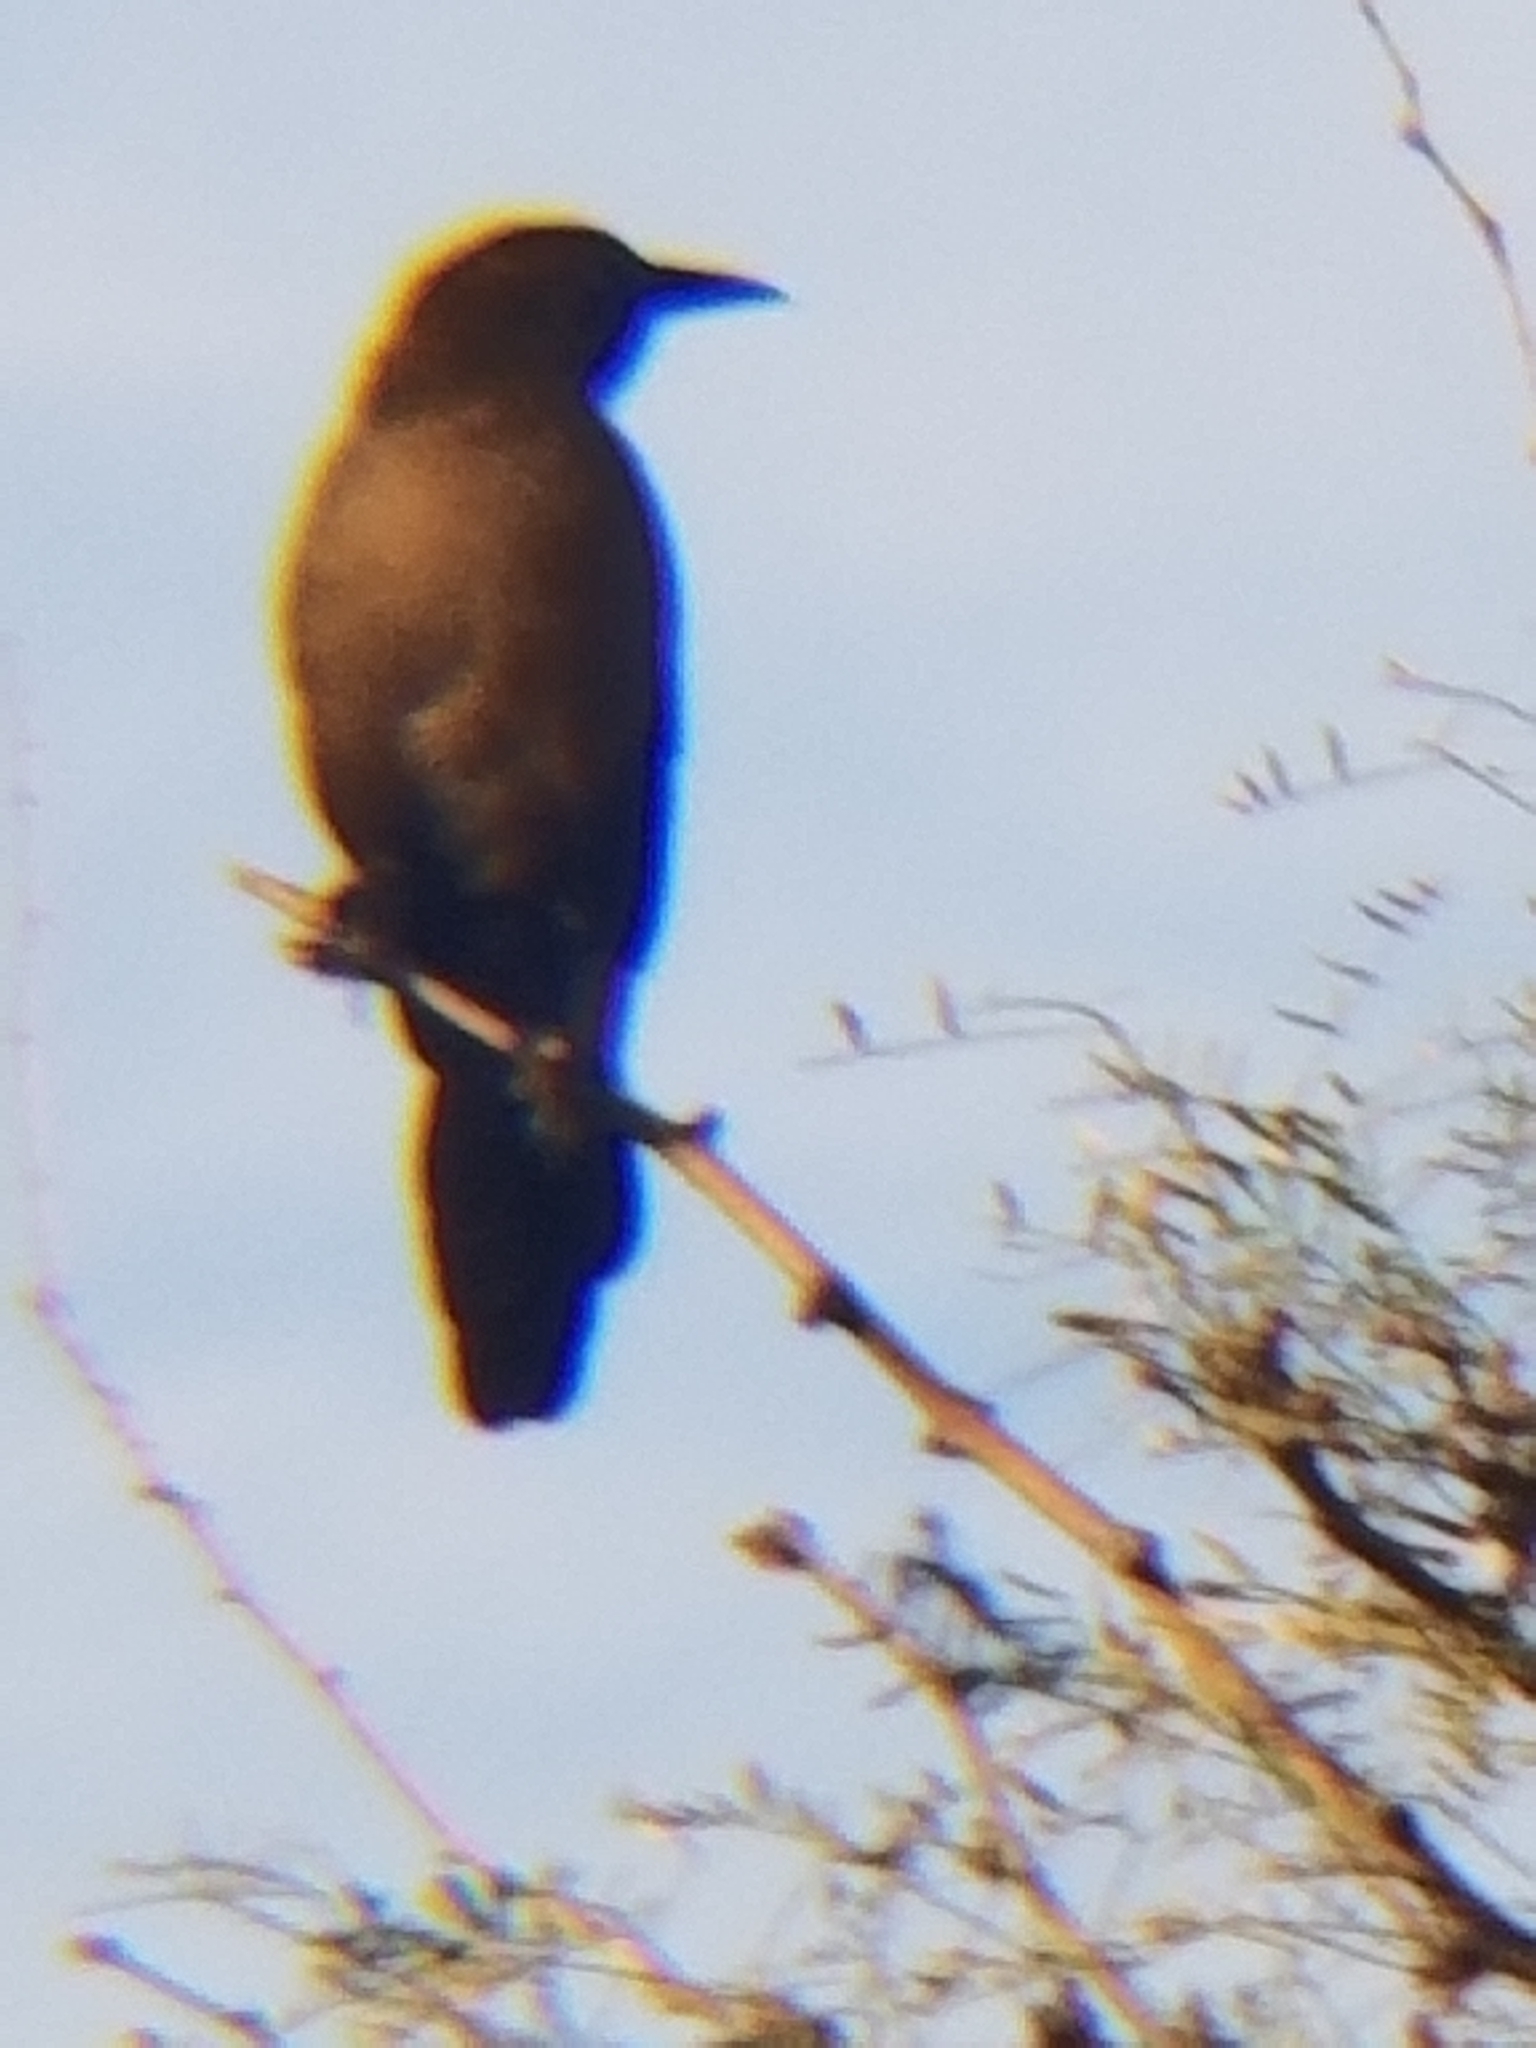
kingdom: Animalia
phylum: Chordata
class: Aves
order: Passeriformes
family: Icteridae
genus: Quiscalus
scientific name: Quiscalus mexicanus
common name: Great-tailed grackle
